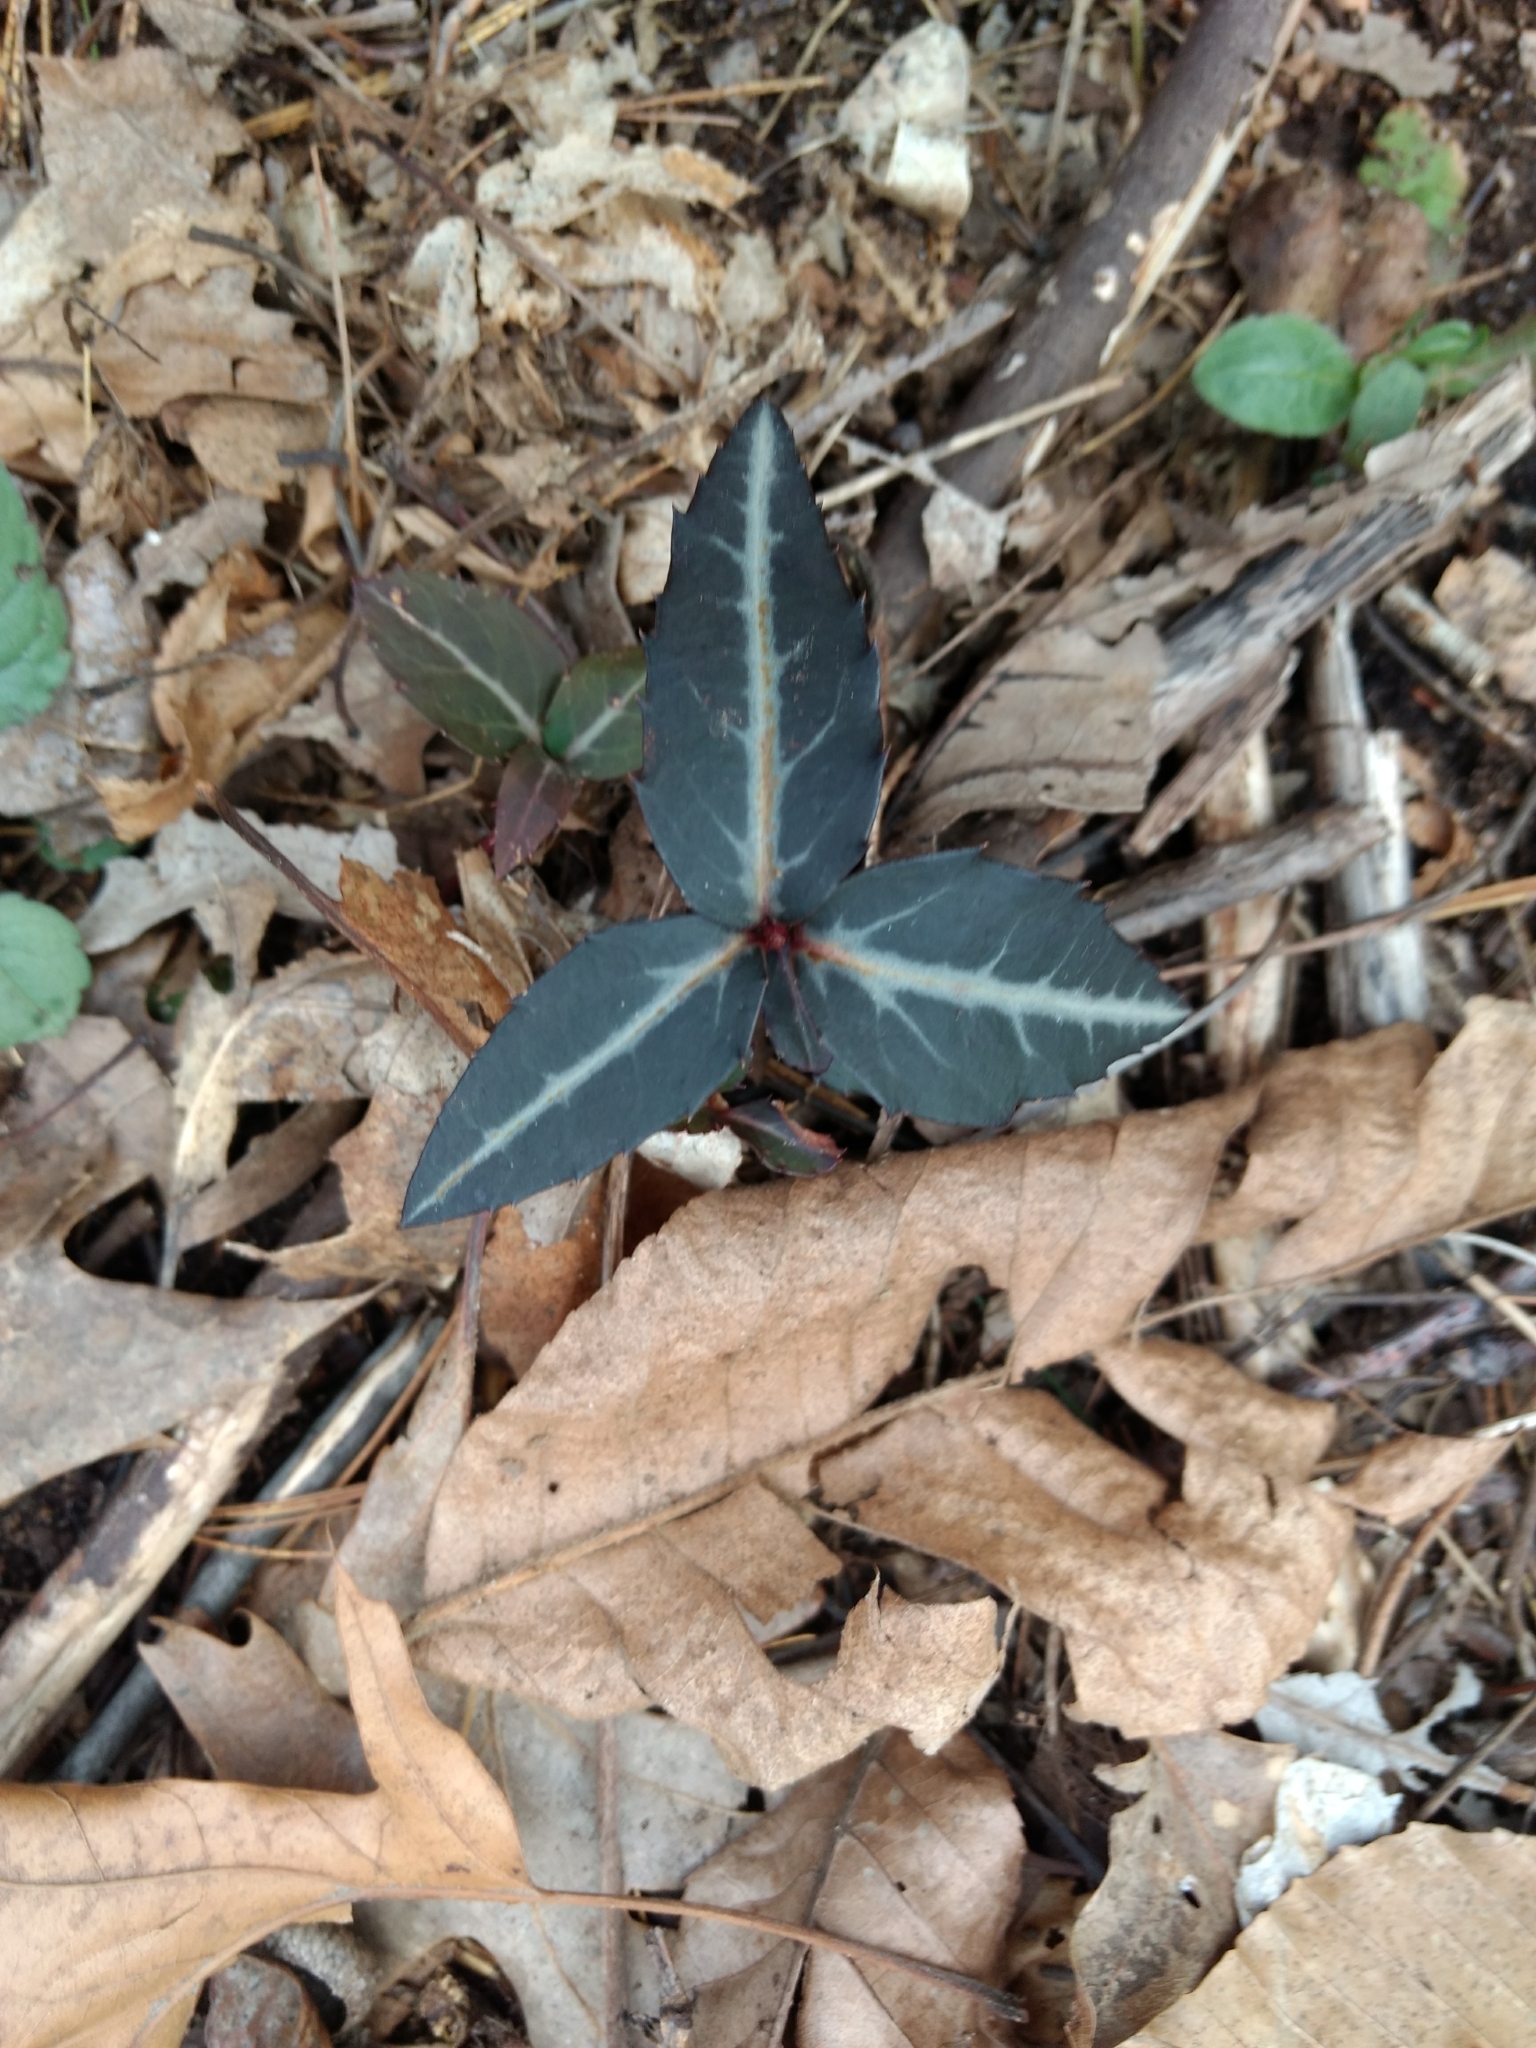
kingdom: Plantae
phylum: Tracheophyta
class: Magnoliopsida
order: Ericales
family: Ericaceae
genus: Chimaphila
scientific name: Chimaphila maculata
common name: Spotted pipsissewa
